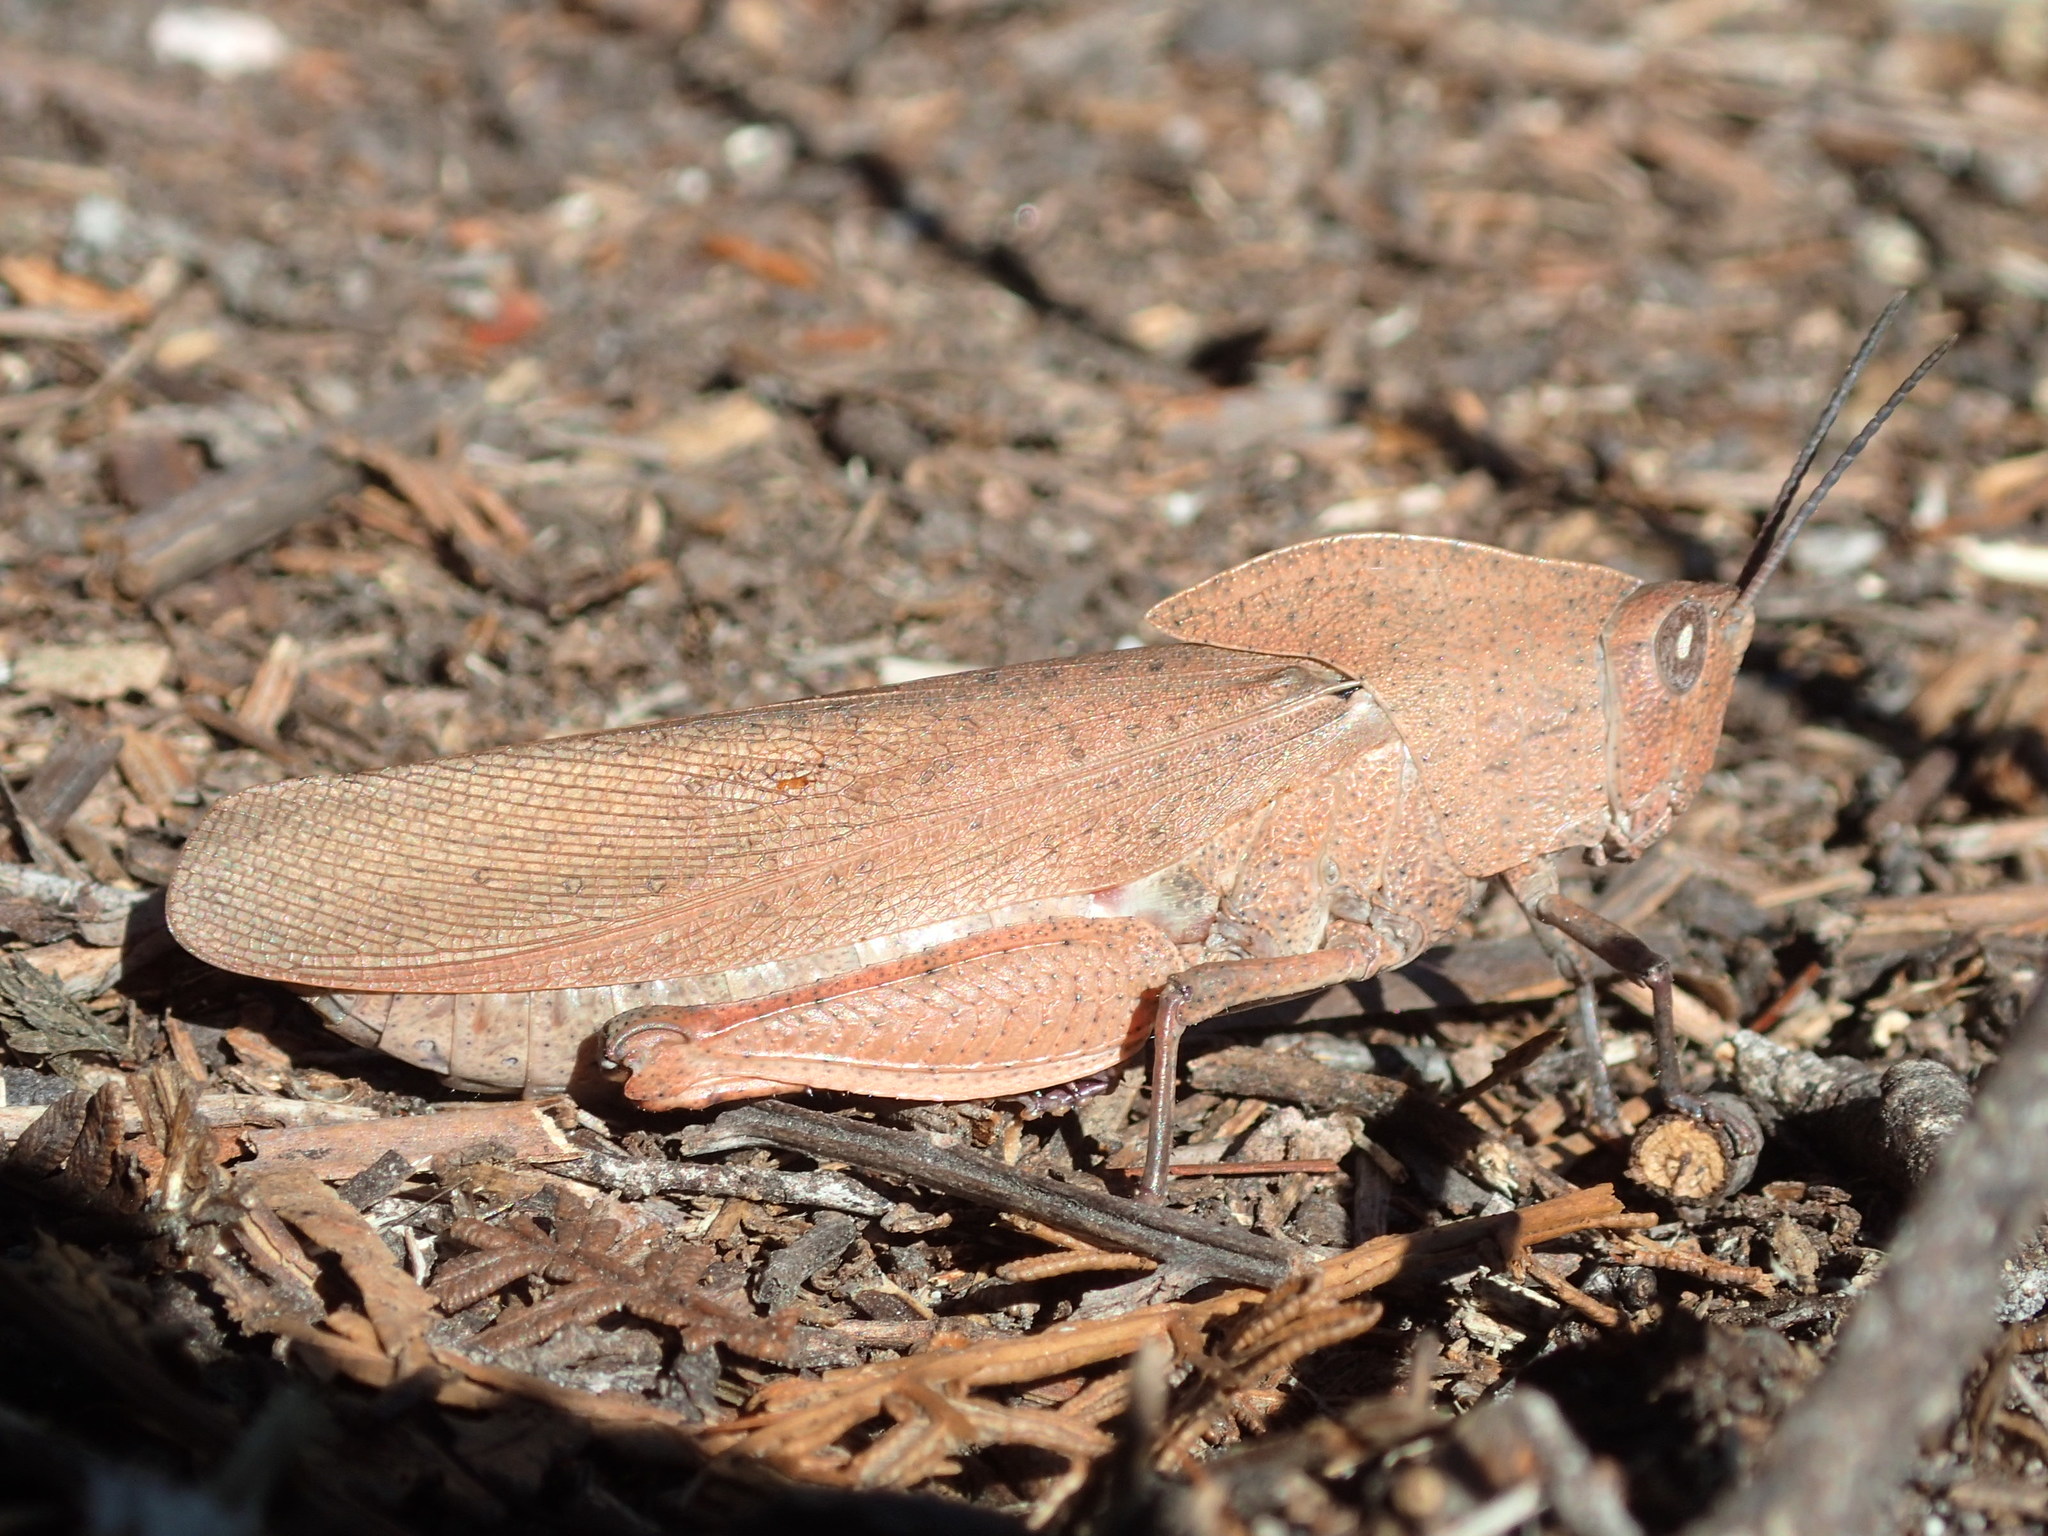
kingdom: Animalia
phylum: Arthropoda
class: Insecta
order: Orthoptera
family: Acrididae
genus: Goniaea
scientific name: Goniaea australasiae
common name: Gumleaf grasshopper
